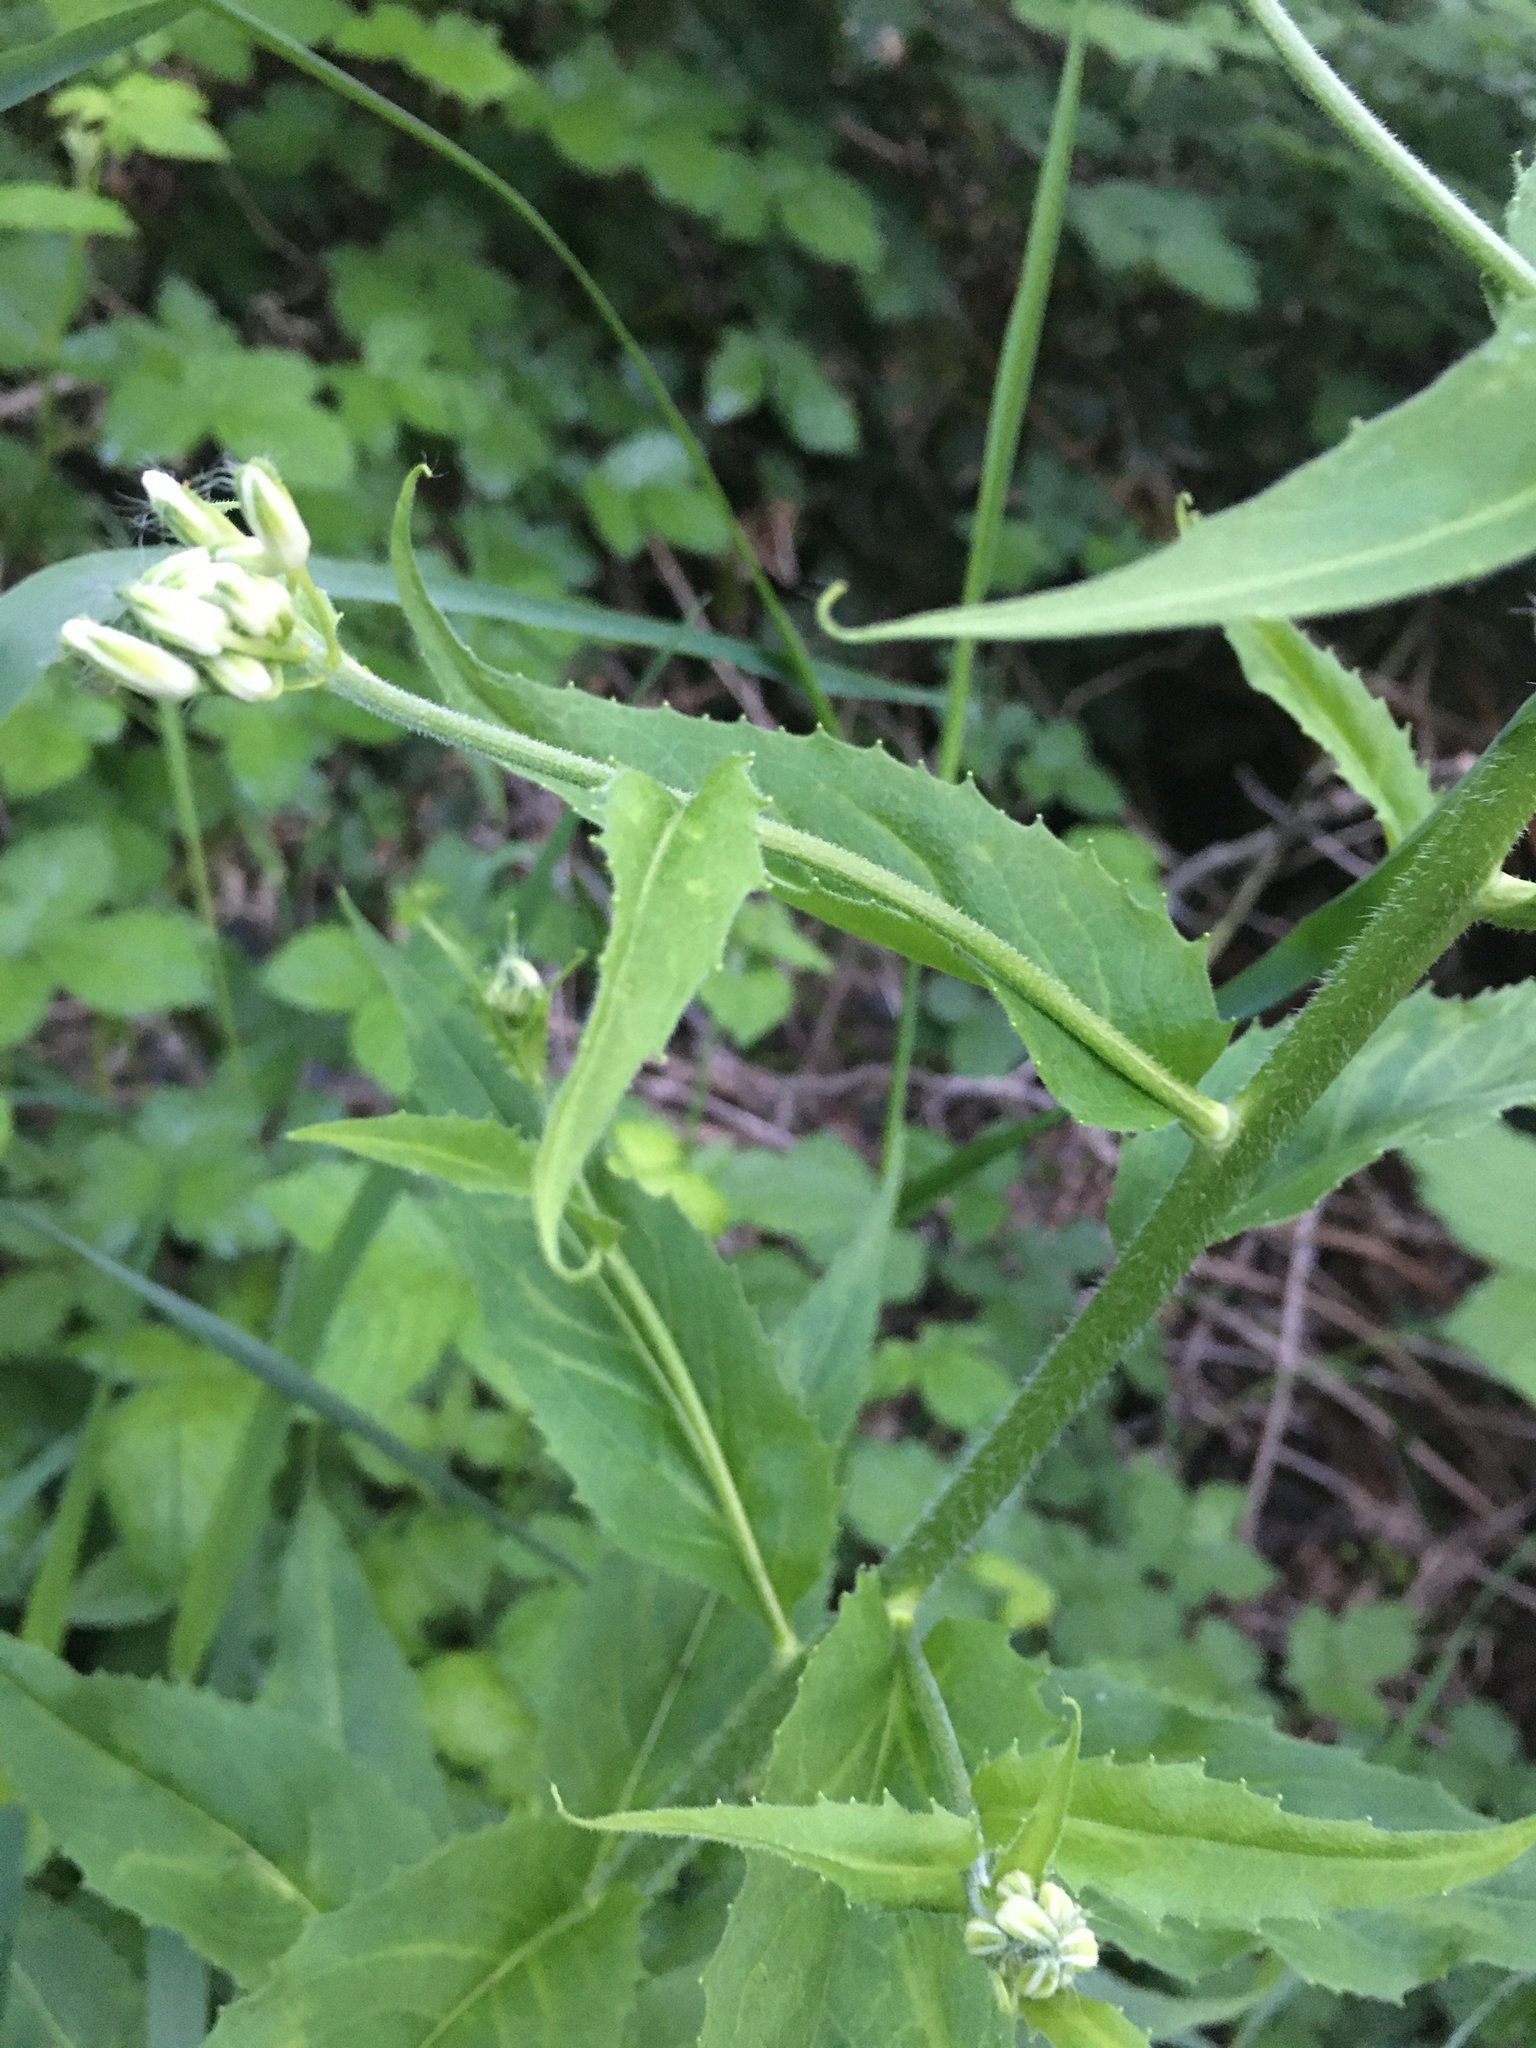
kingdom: Plantae
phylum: Tracheophyta
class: Magnoliopsida
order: Brassicales
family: Brassicaceae
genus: Hesperis
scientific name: Hesperis matronalis
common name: Dame's-violet
